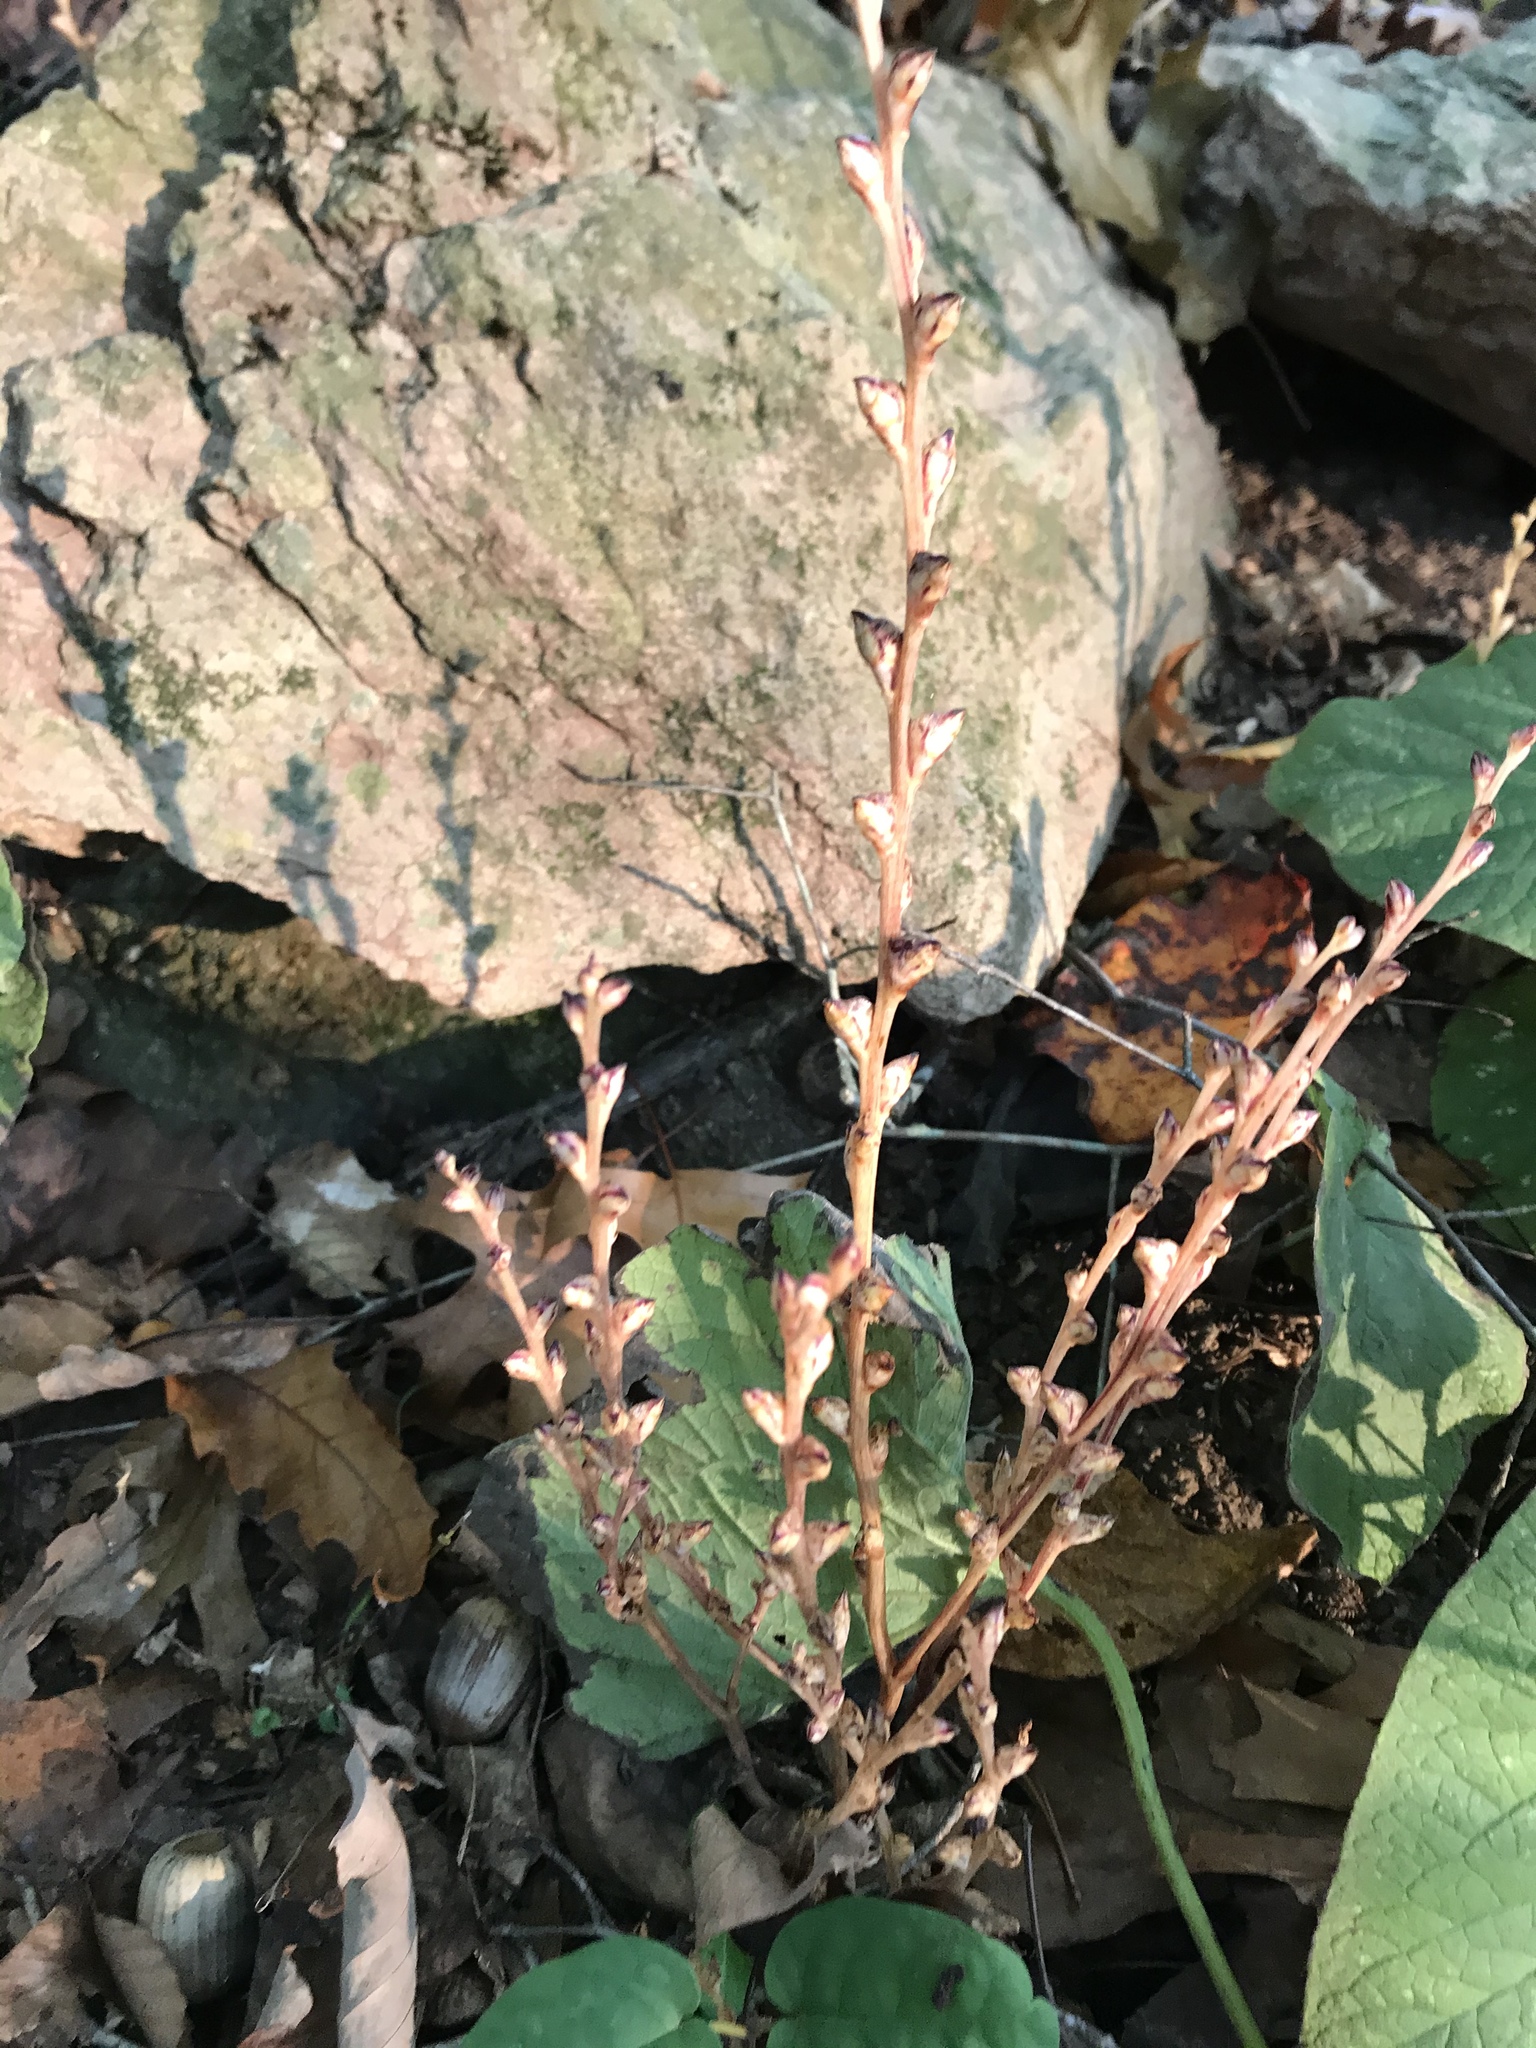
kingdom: Plantae
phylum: Tracheophyta
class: Magnoliopsida
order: Lamiales
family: Orobanchaceae
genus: Epifagus
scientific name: Epifagus virginiana
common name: Beechdrops
